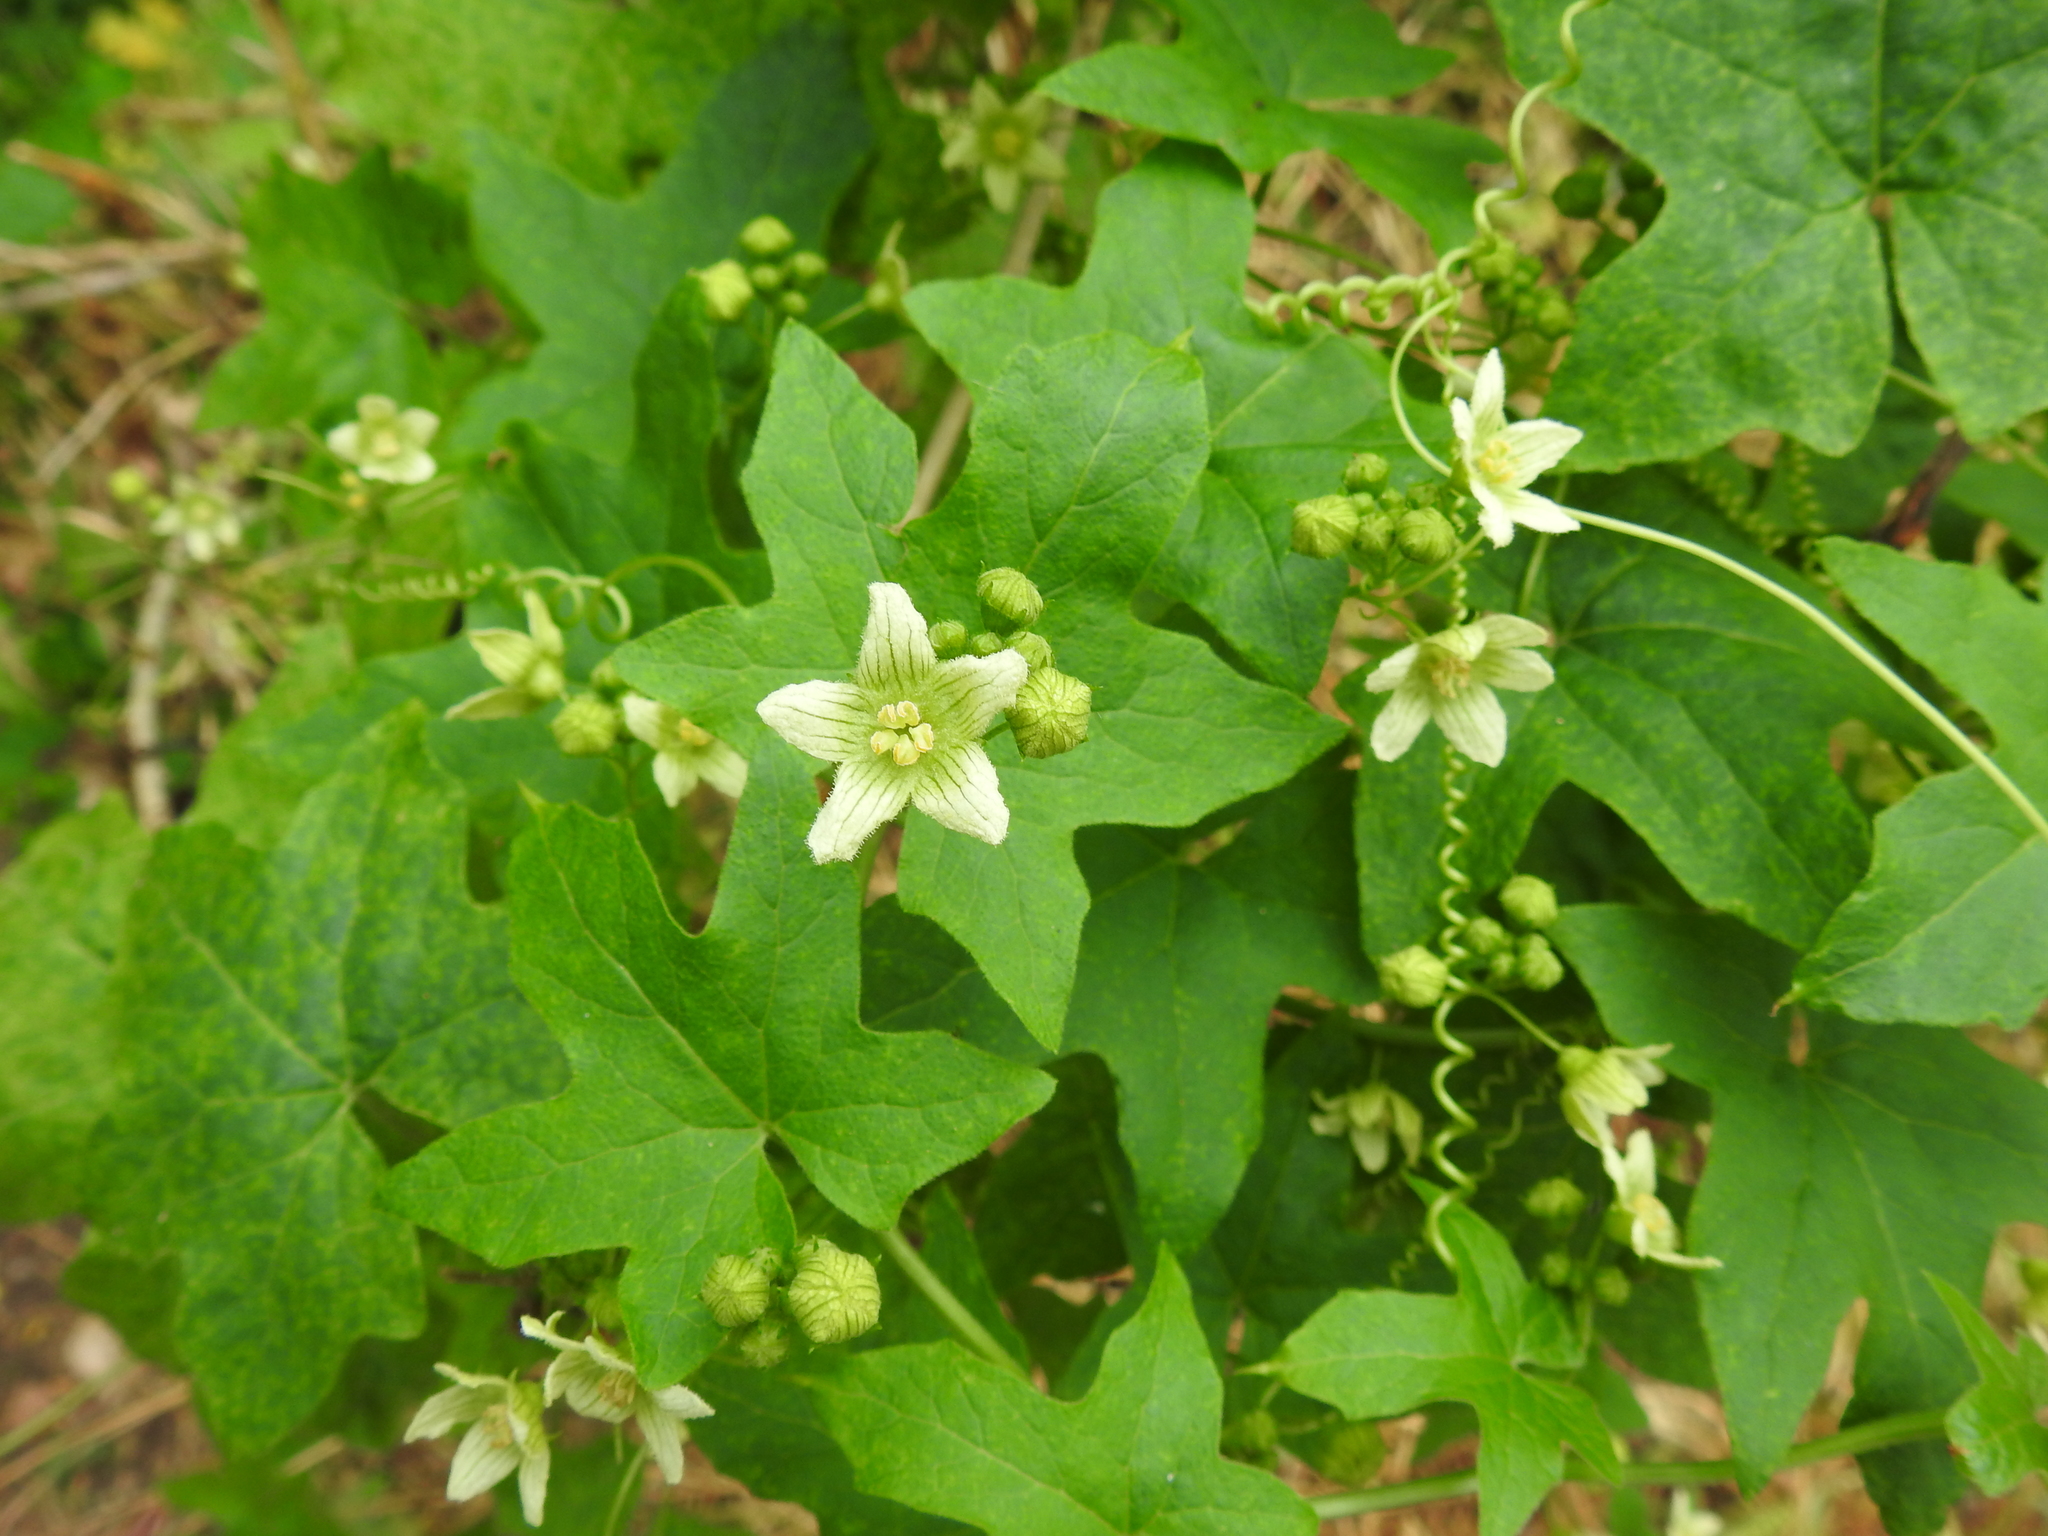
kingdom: Plantae
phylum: Tracheophyta
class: Magnoliopsida
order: Cucurbitales
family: Cucurbitaceae
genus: Bryonia
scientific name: Bryonia cretica
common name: Cretan bryony
